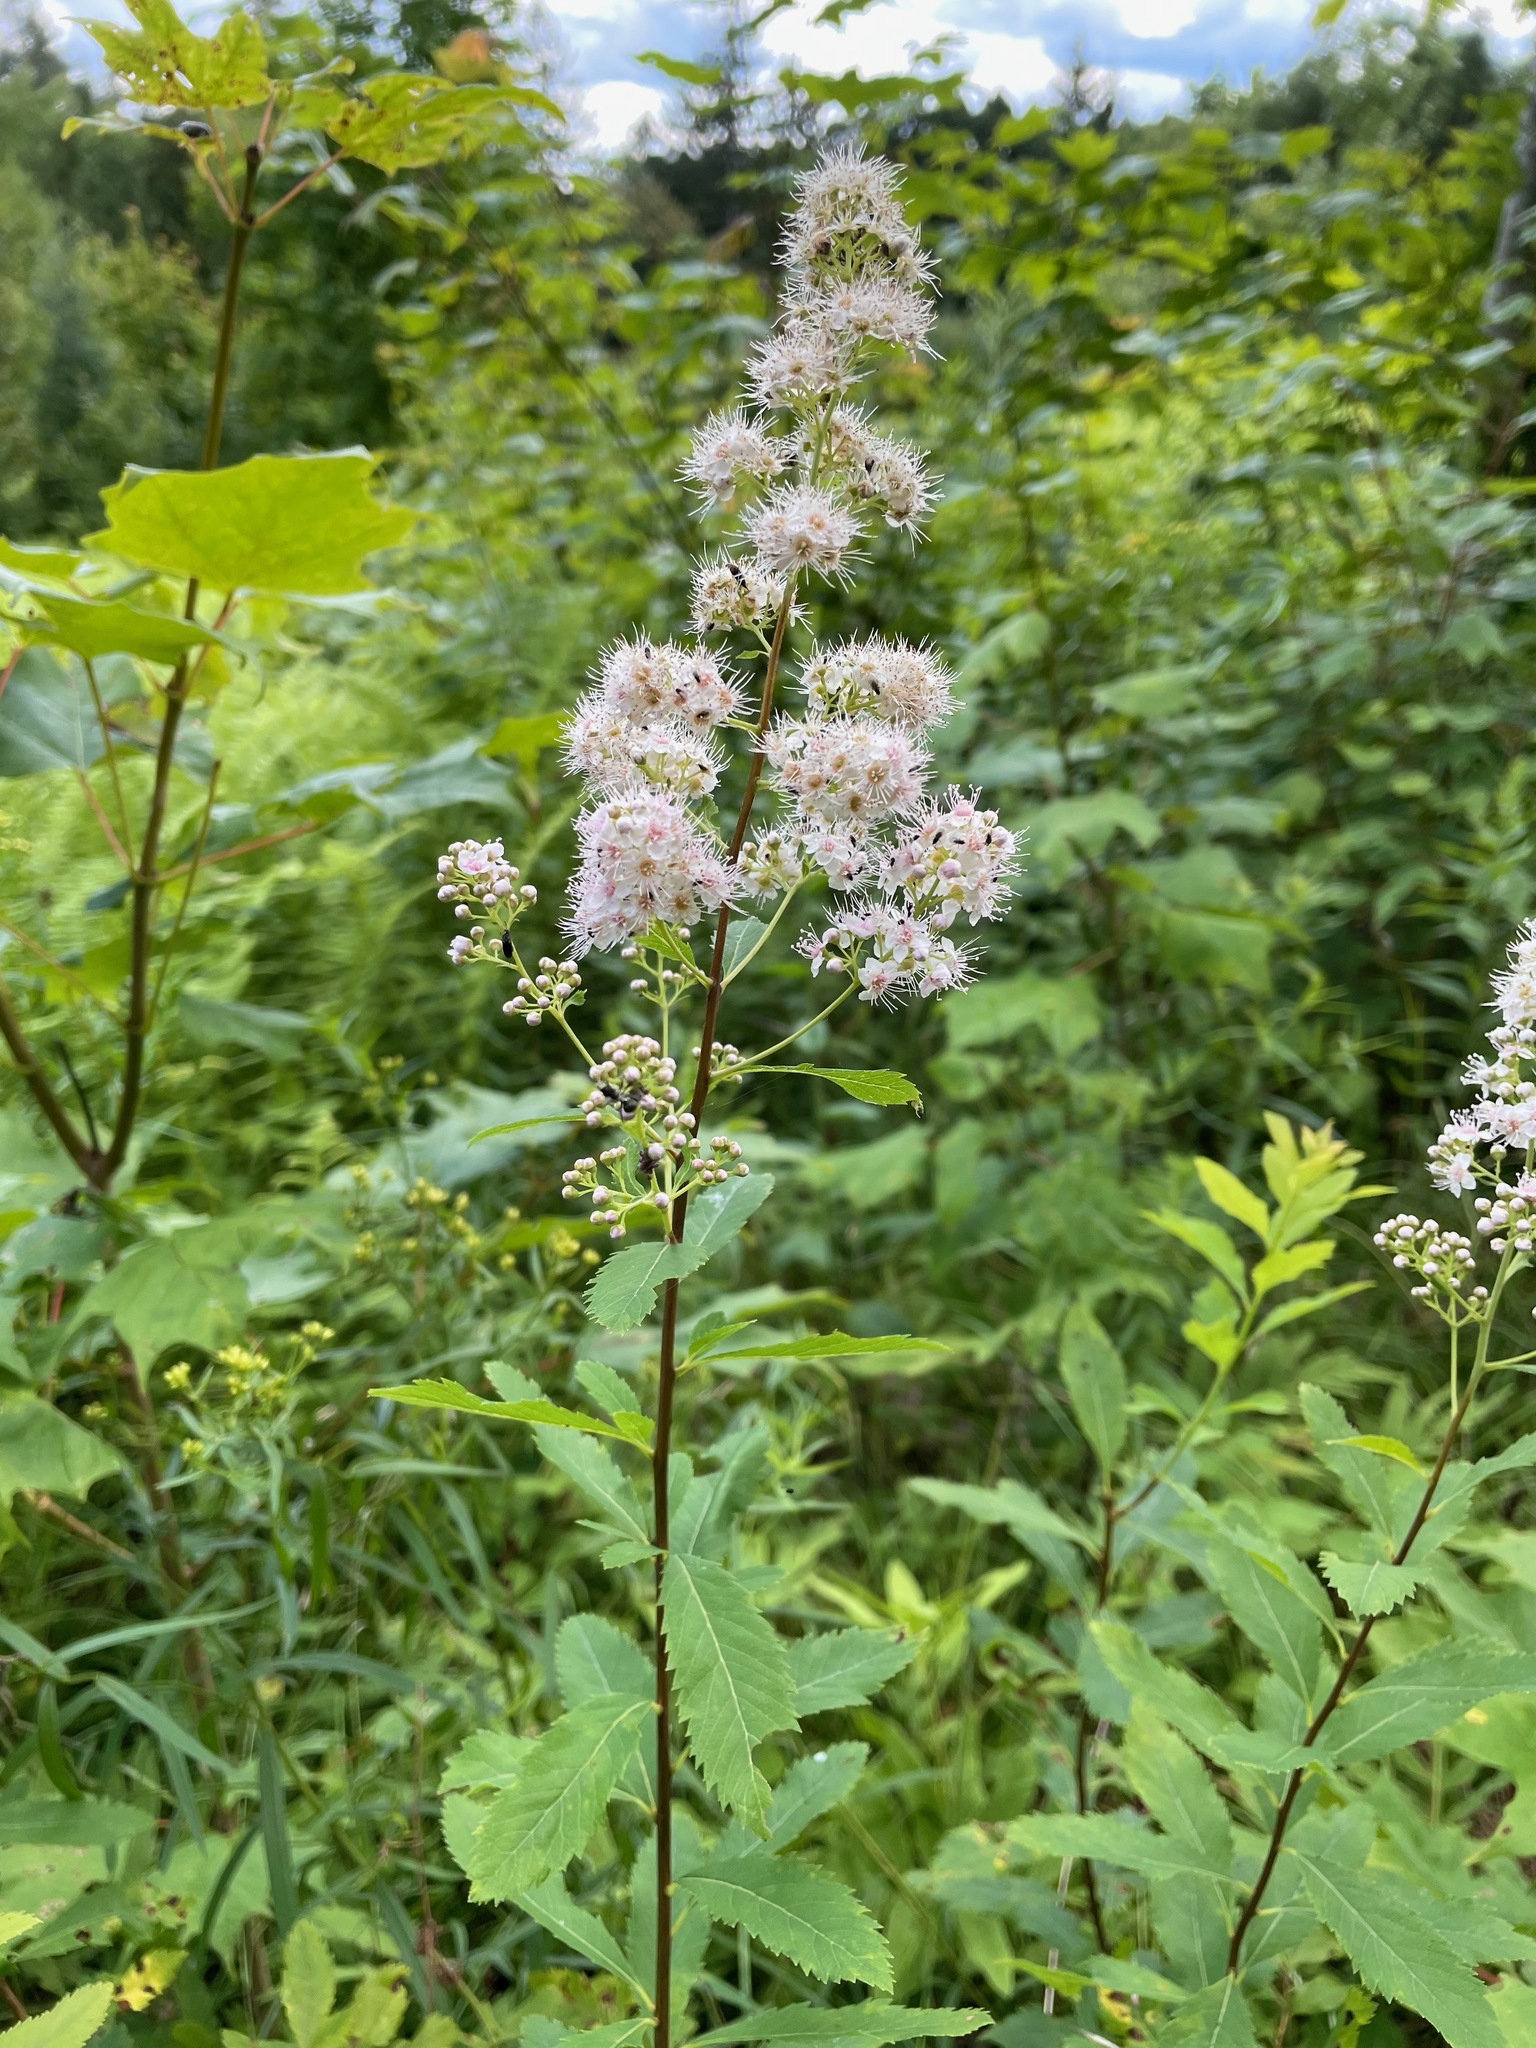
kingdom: Plantae
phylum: Tracheophyta
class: Magnoliopsida
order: Rosales
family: Rosaceae
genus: Spiraea
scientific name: Spiraea alba
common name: Pale bridewort
